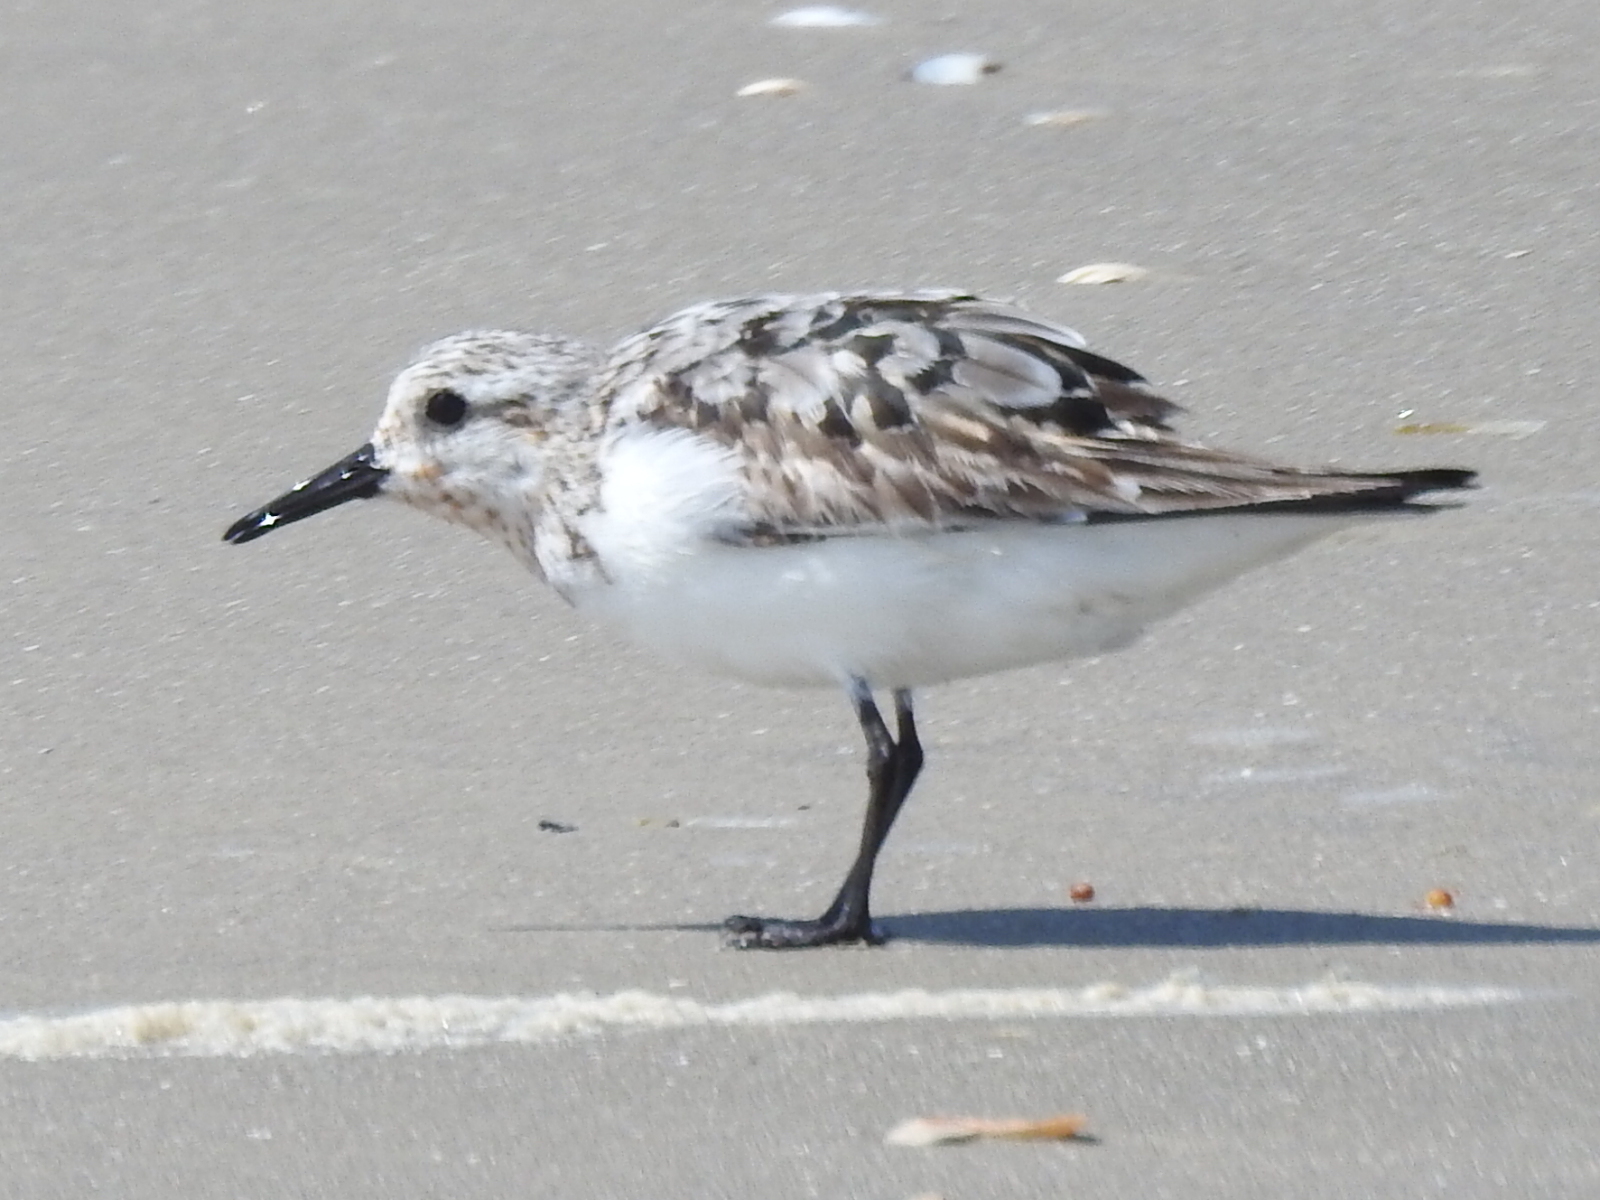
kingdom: Animalia
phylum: Chordata
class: Aves
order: Charadriiformes
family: Scolopacidae
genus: Calidris
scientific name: Calidris alba
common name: Sanderling
